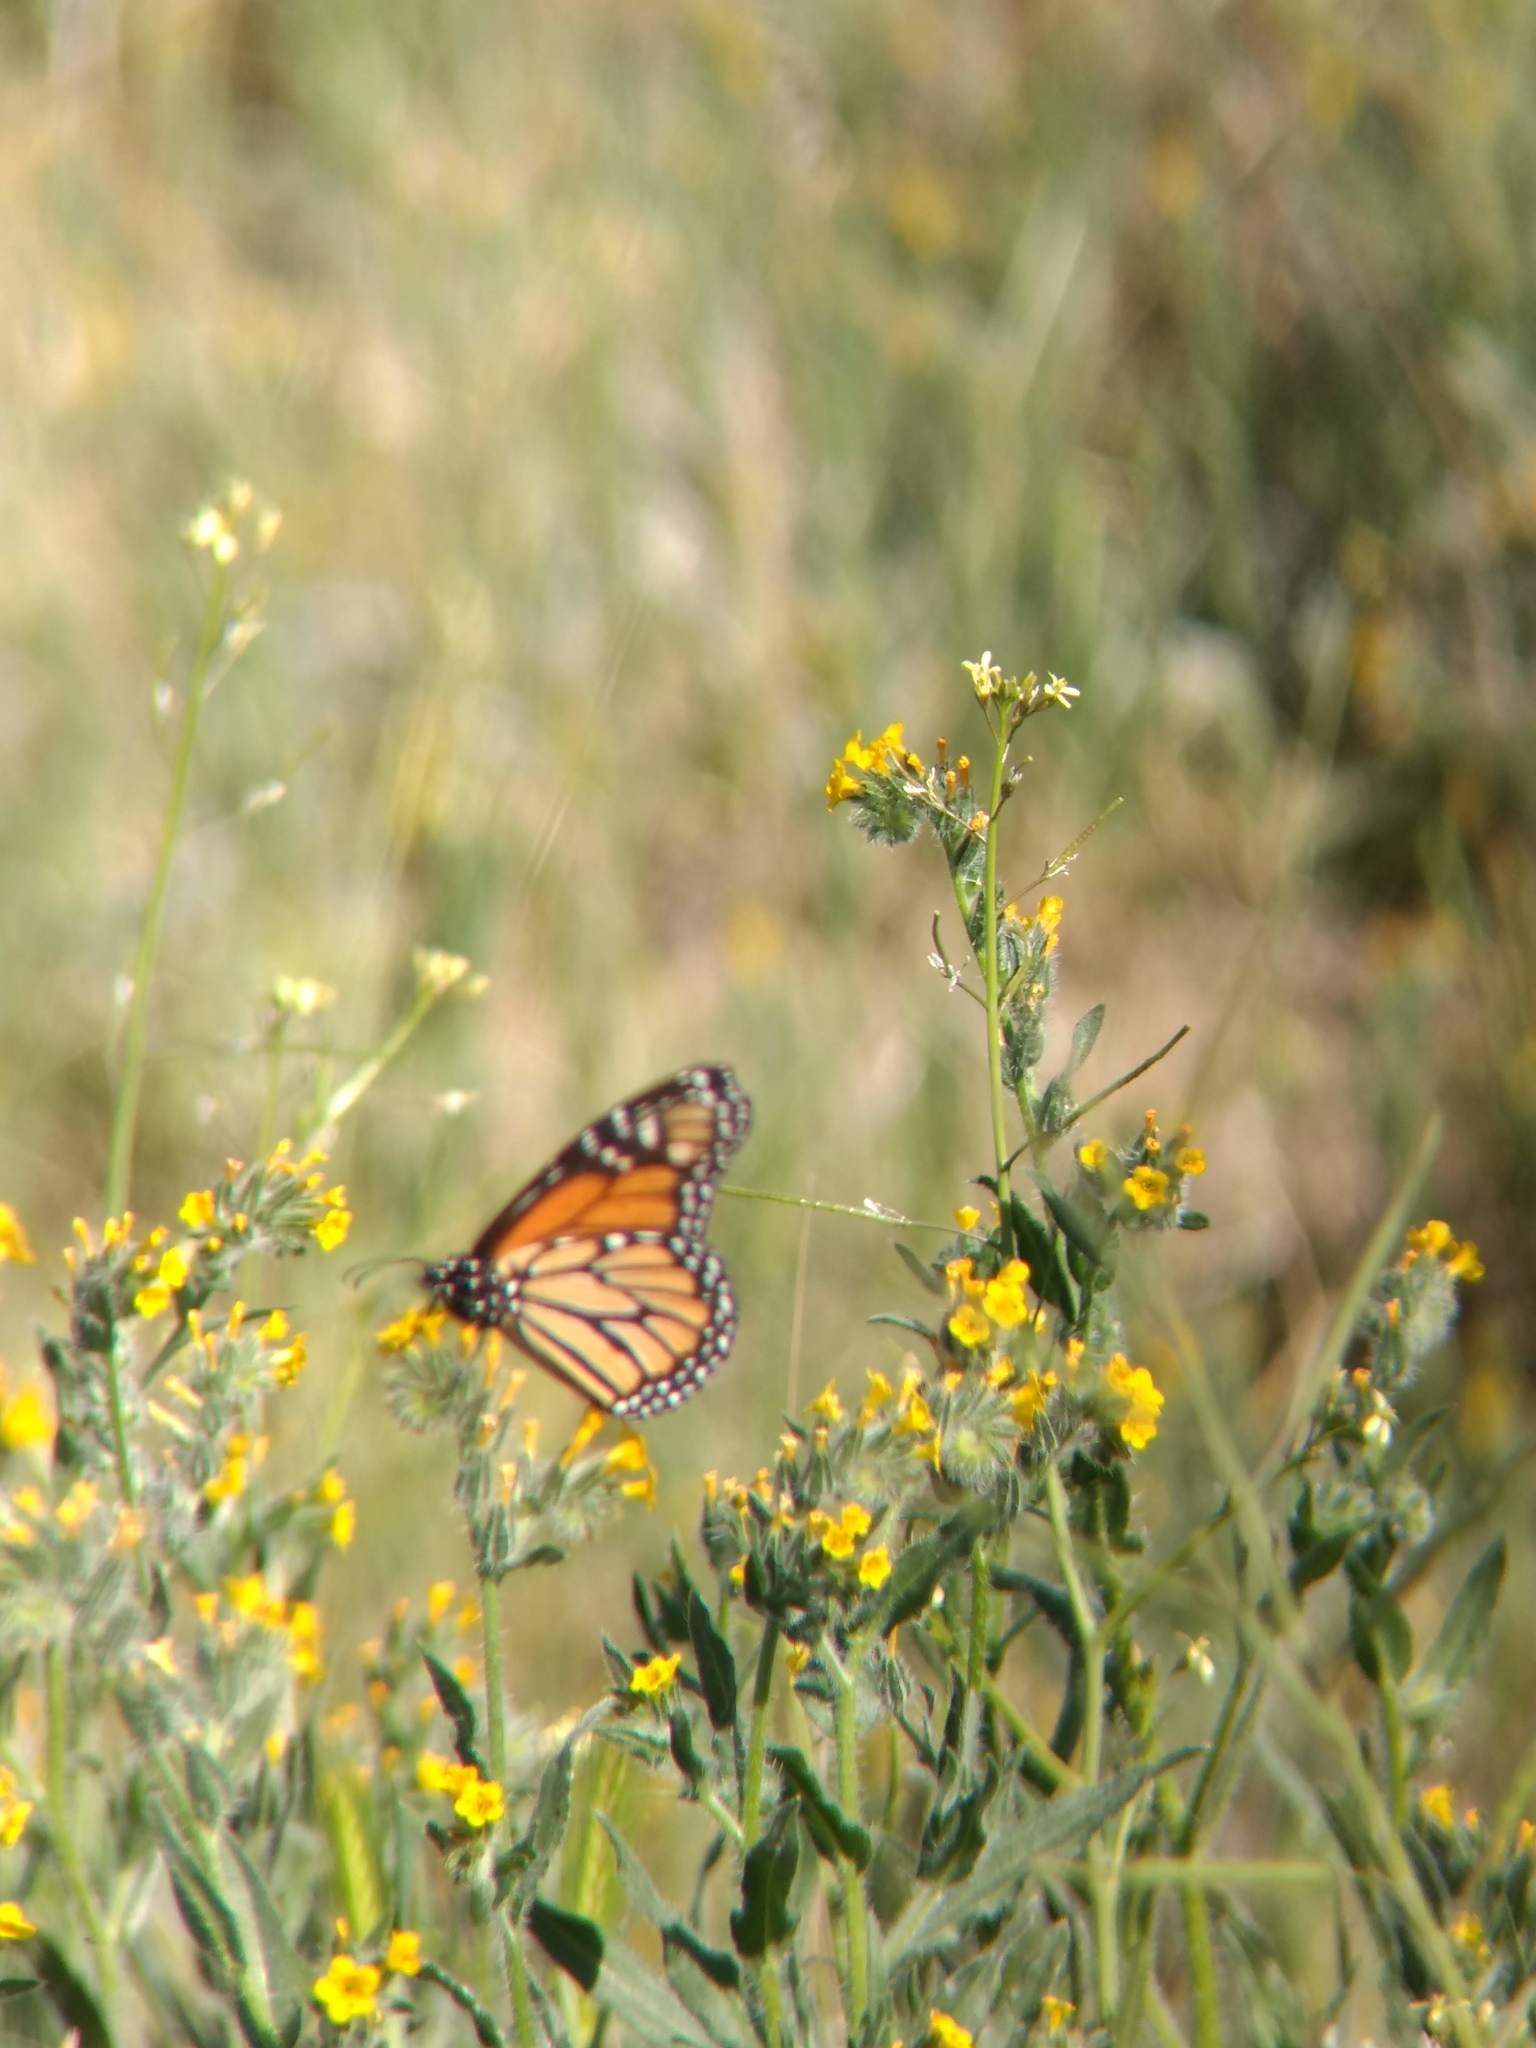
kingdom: Animalia
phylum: Arthropoda
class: Insecta
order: Lepidoptera
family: Nymphalidae
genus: Danaus
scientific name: Danaus plexippus
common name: Monarch
